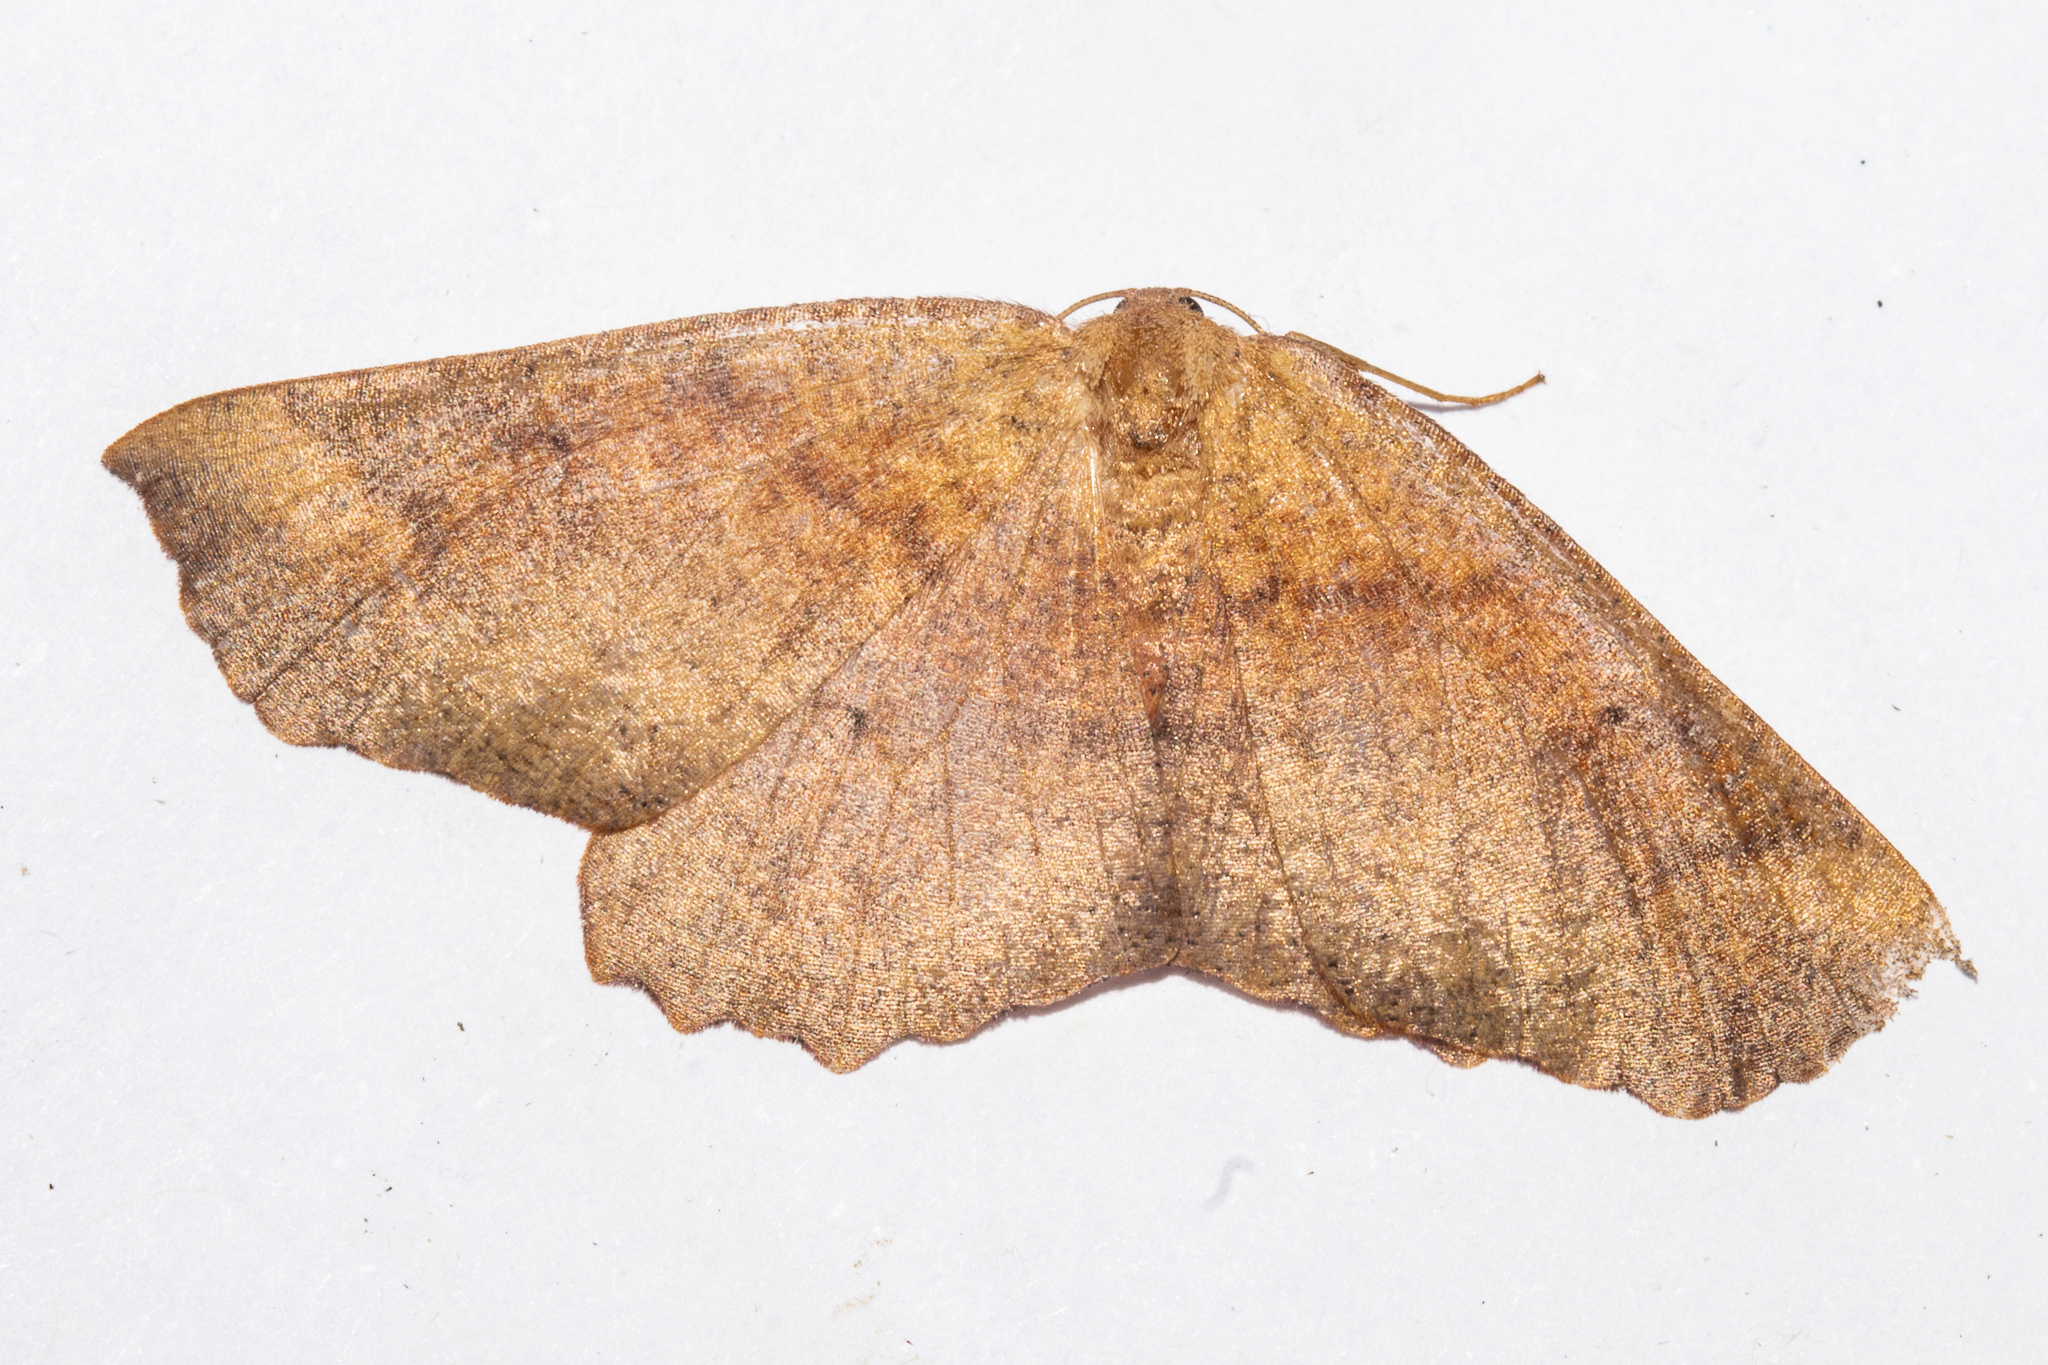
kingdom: Animalia
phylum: Arthropoda
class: Insecta
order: Lepidoptera
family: Geometridae
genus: Xyridacma
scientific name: Xyridacma ustaria
